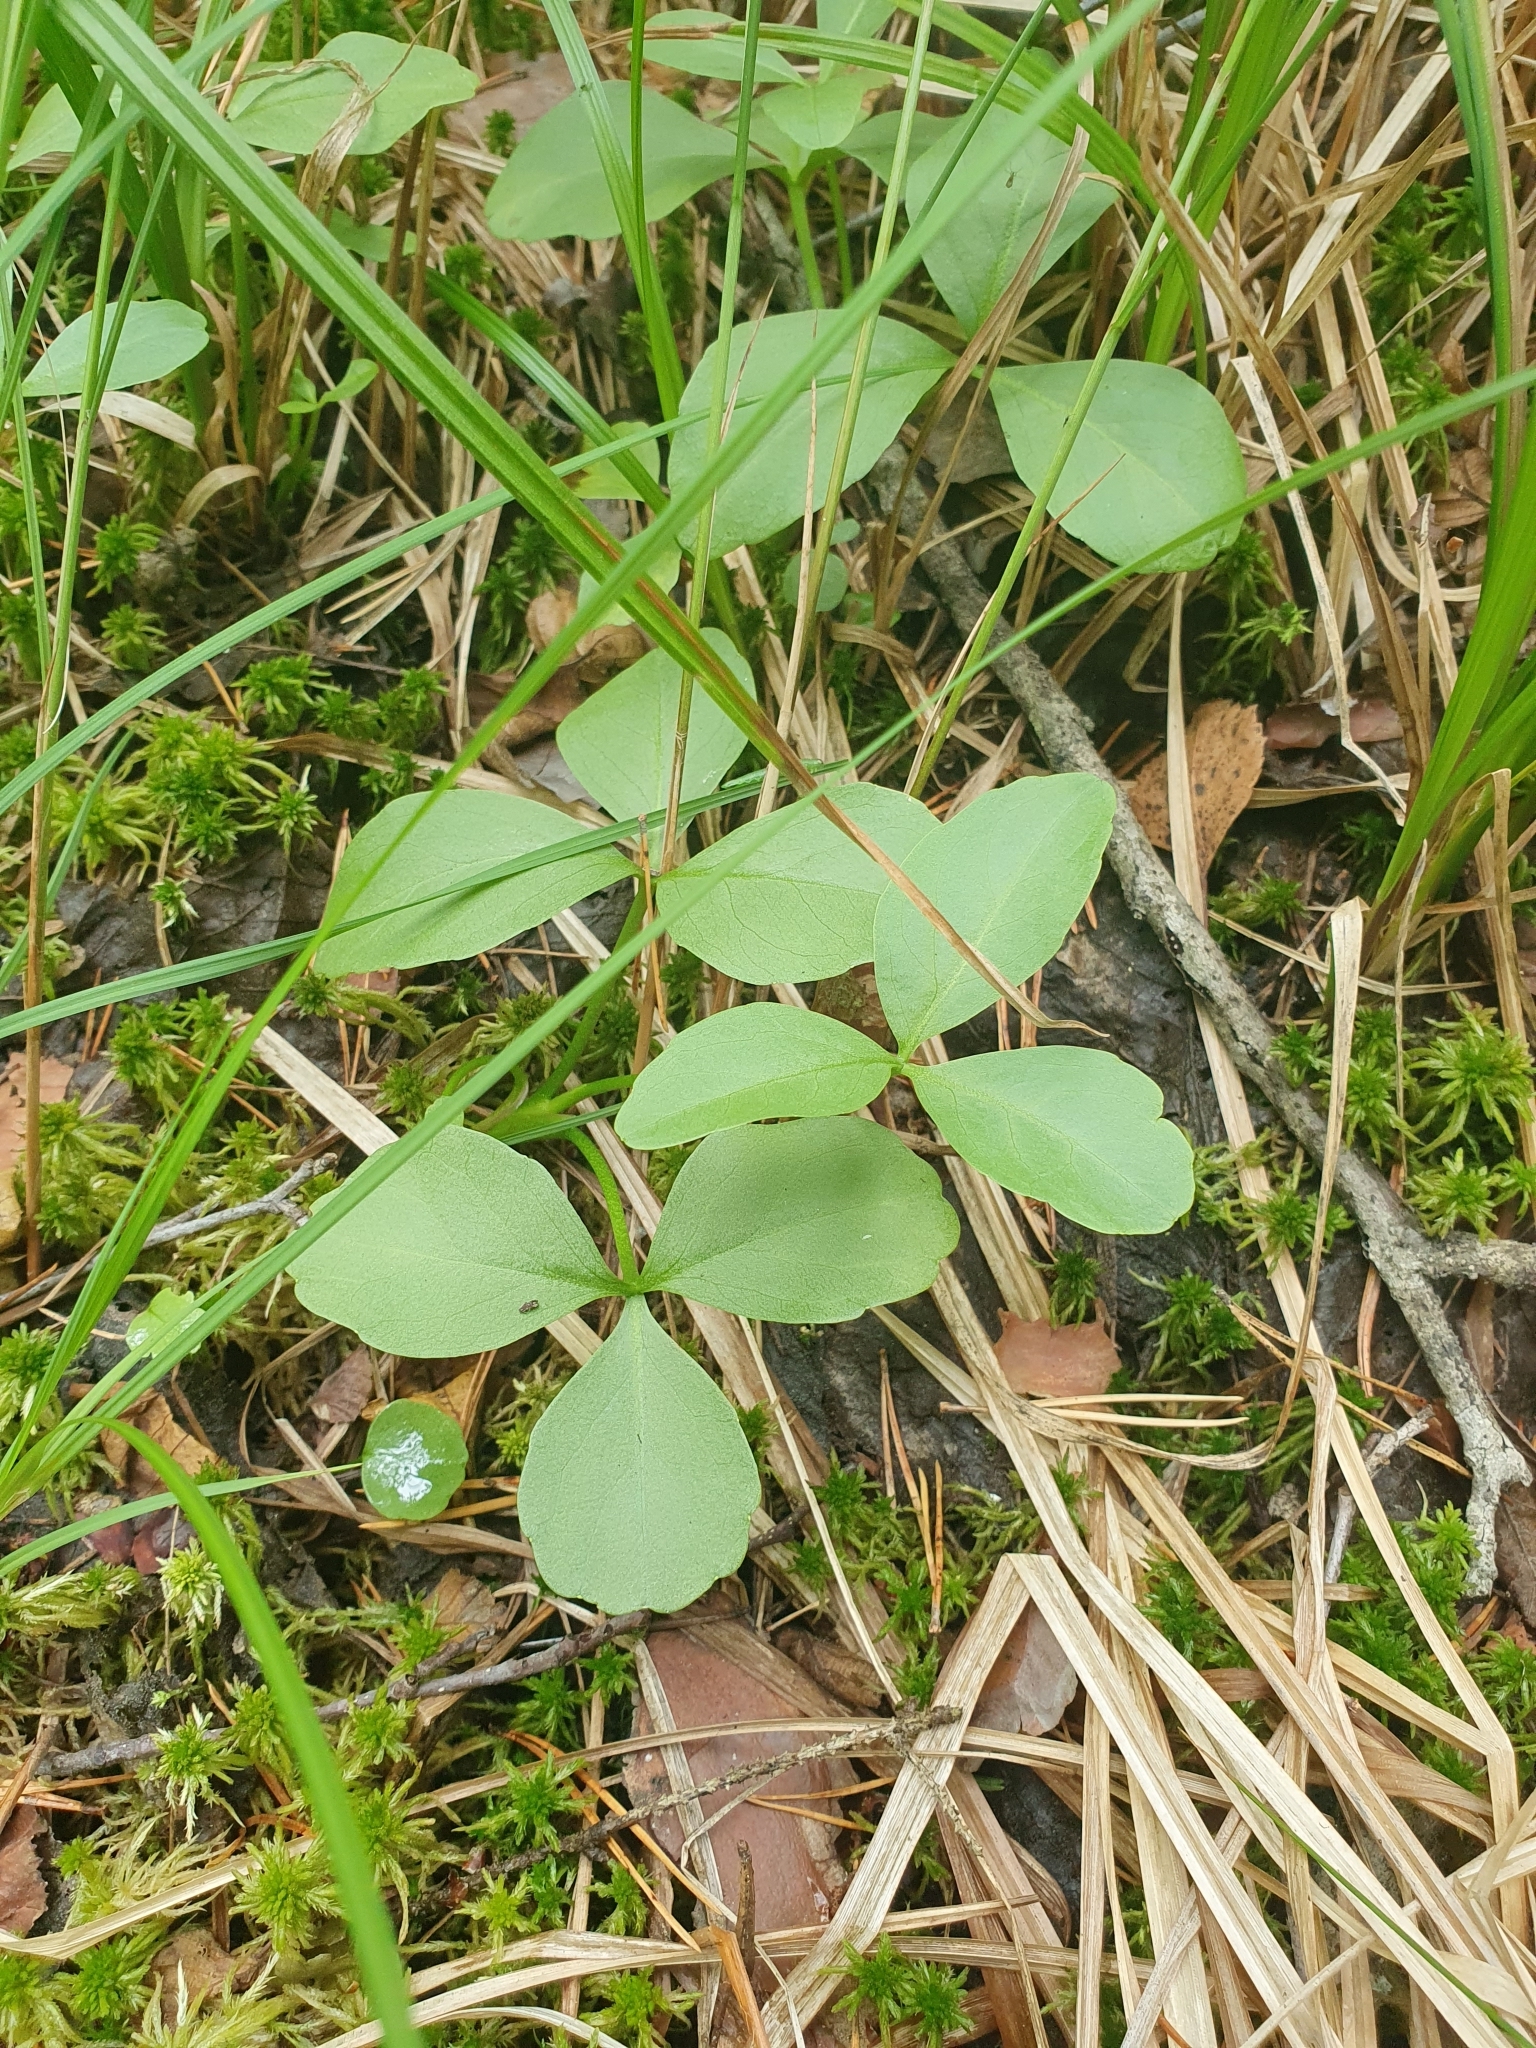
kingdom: Plantae
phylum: Tracheophyta
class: Magnoliopsida
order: Asterales
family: Menyanthaceae
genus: Menyanthes
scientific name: Menyanthes trifoliata
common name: Bogbean
